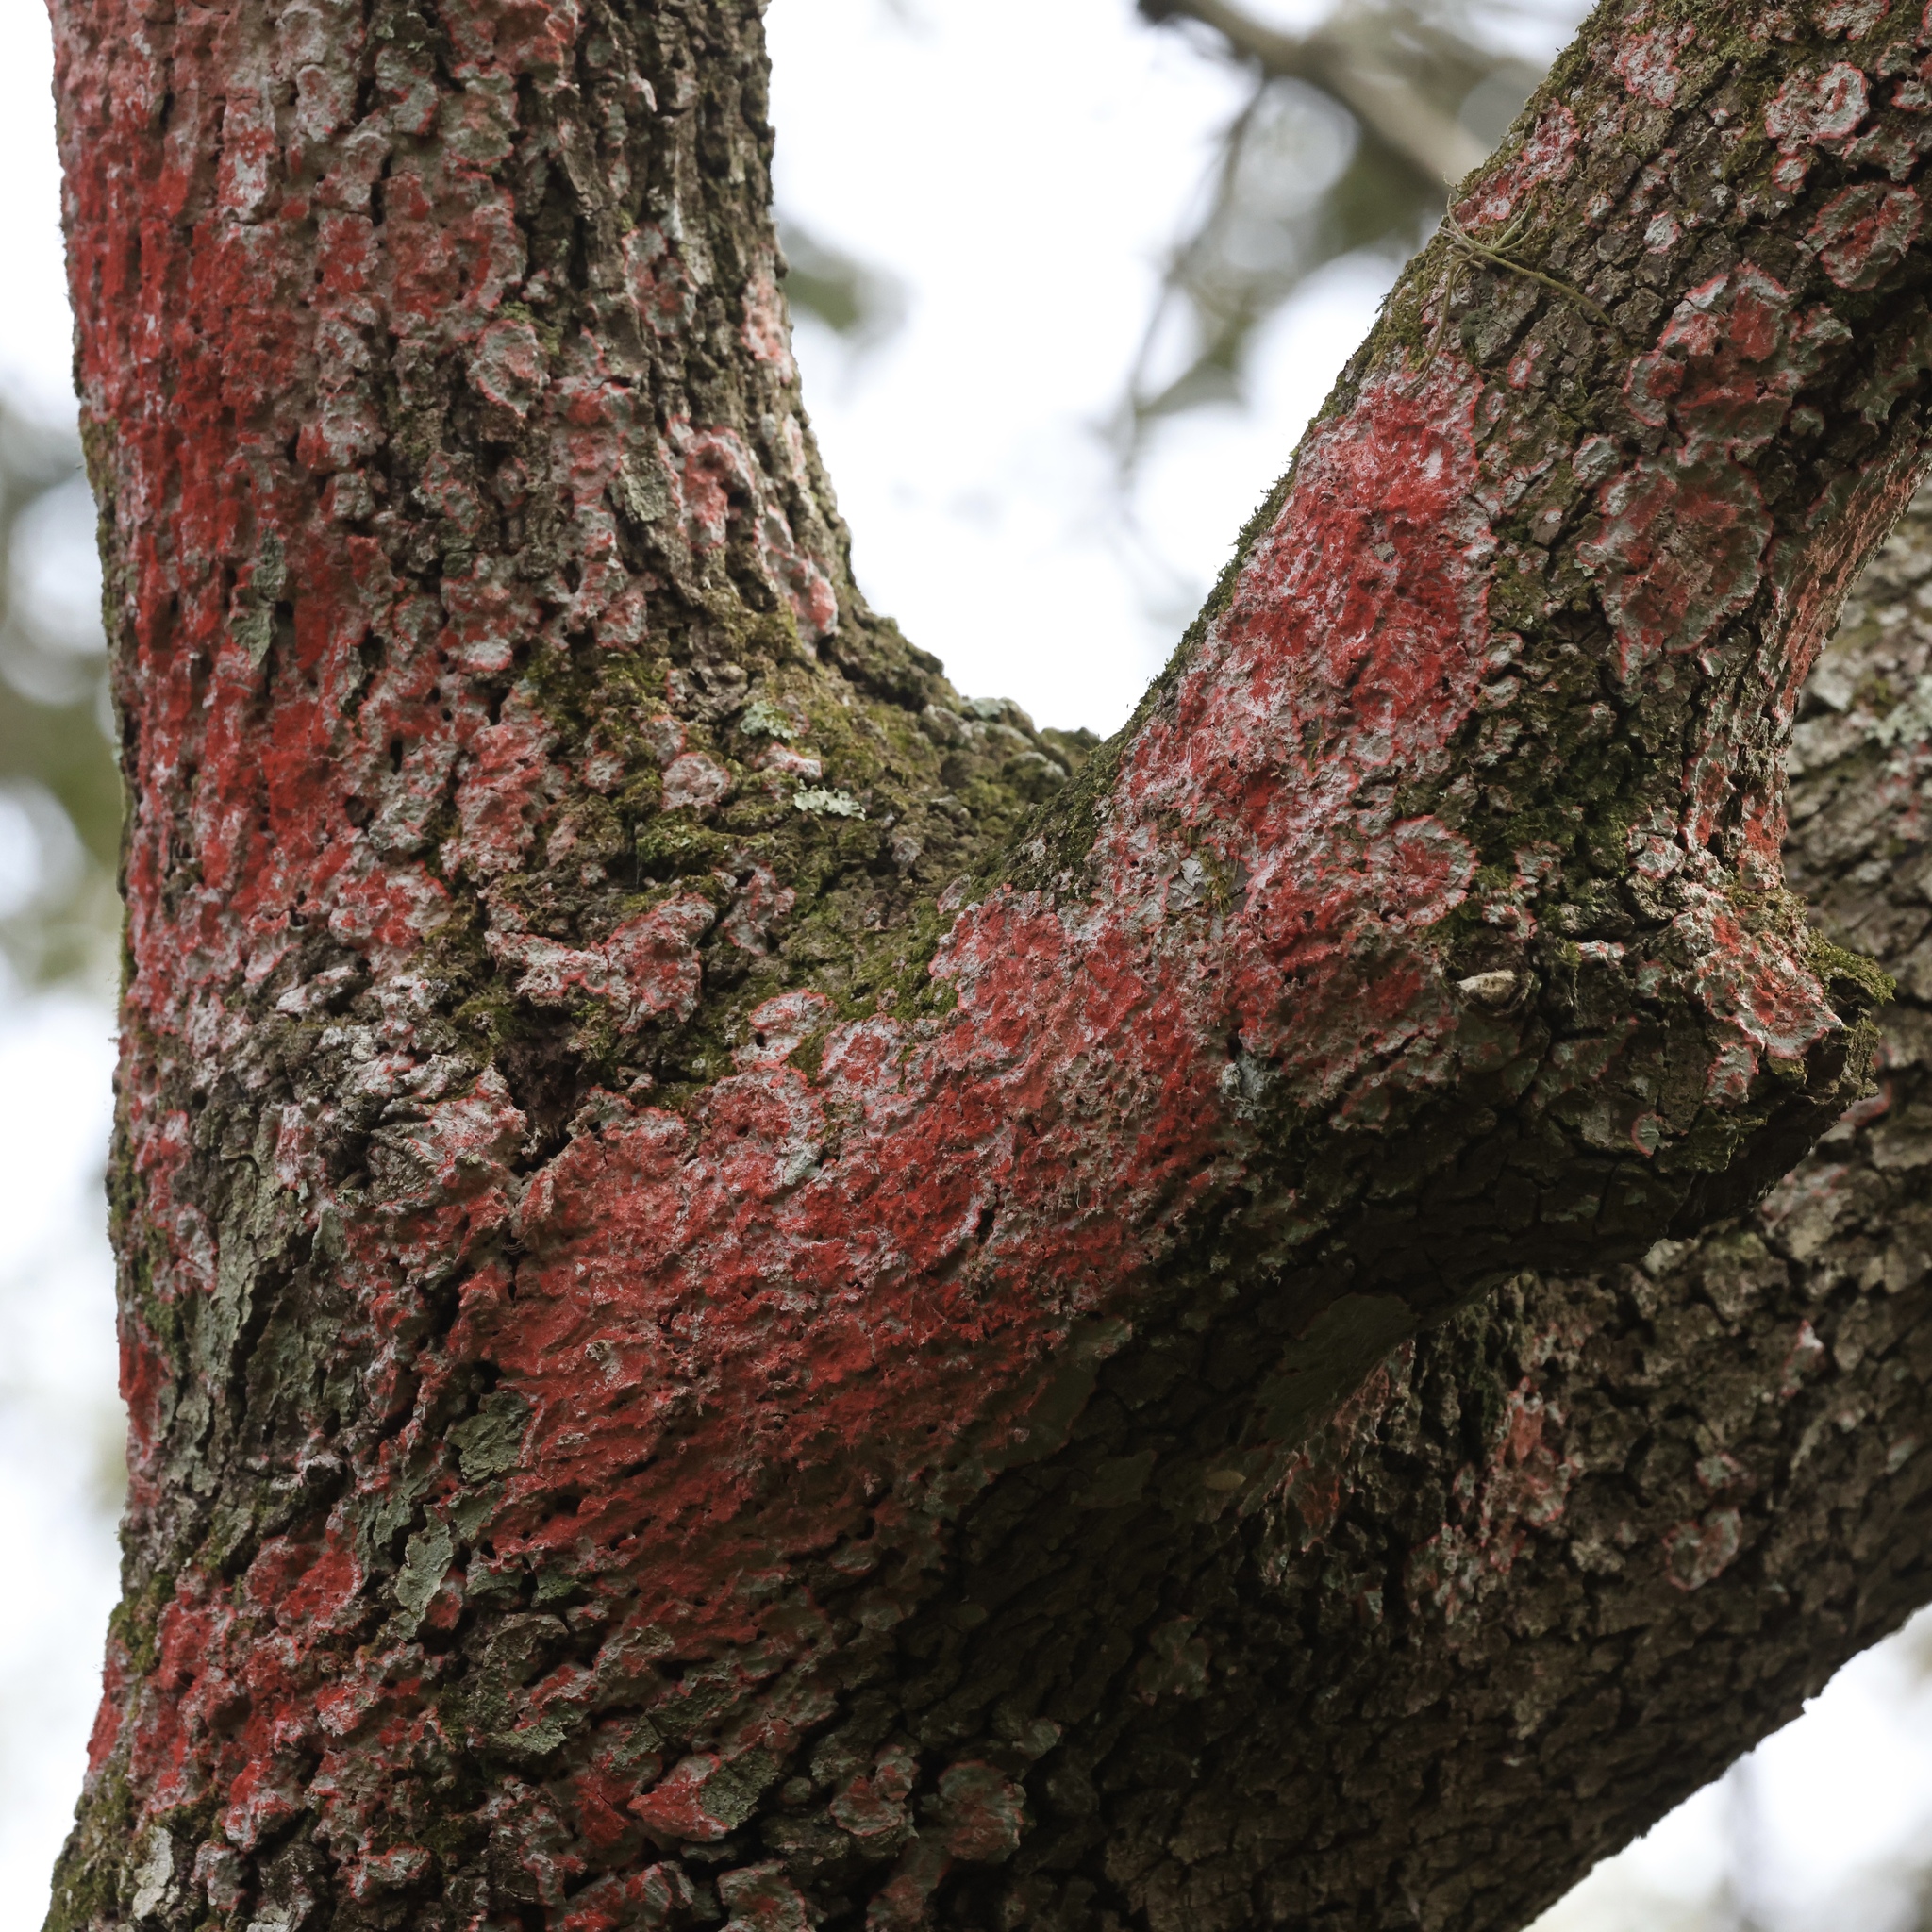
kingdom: Fungi
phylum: Ascomycota
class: Arthoniomycetes
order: Arthoniales
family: Arthoniaceae
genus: Herpothallon
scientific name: Herpothallon rubrocinctum
